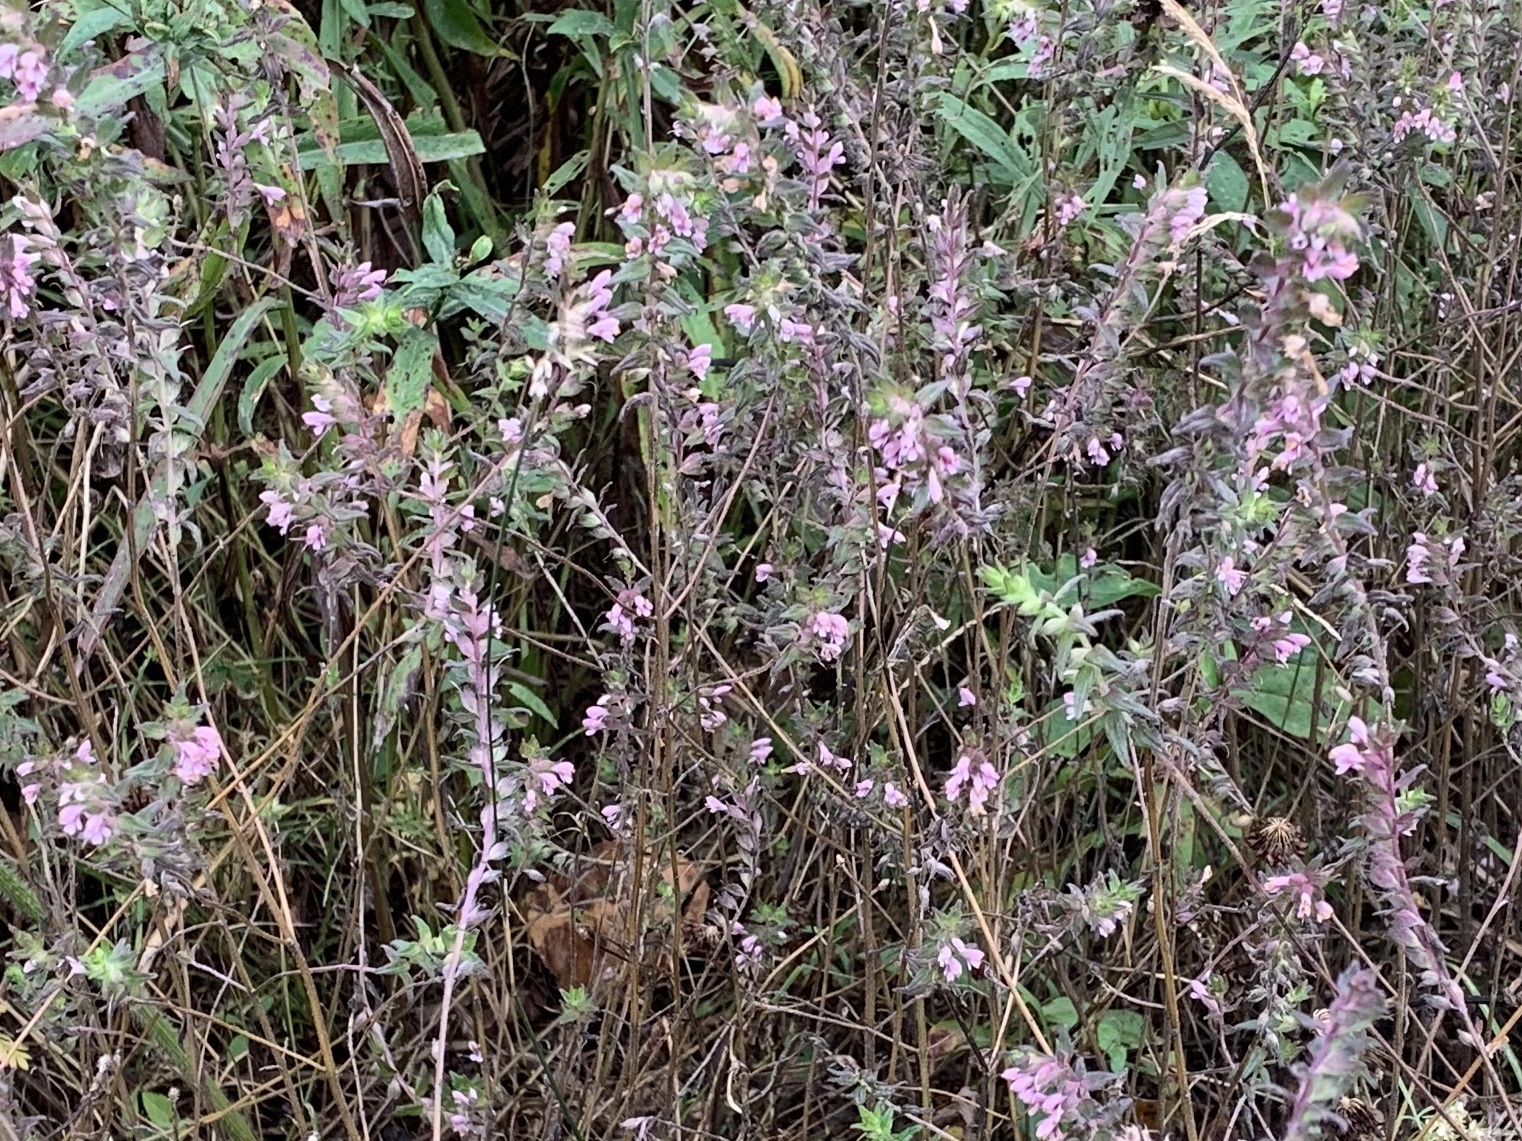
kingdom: Plantae
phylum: Tracheophyta
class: Magnoliopsida
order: Lamiales
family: Orobanchaceae
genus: Odontites
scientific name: Odontites vulgaris
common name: Broomrape
